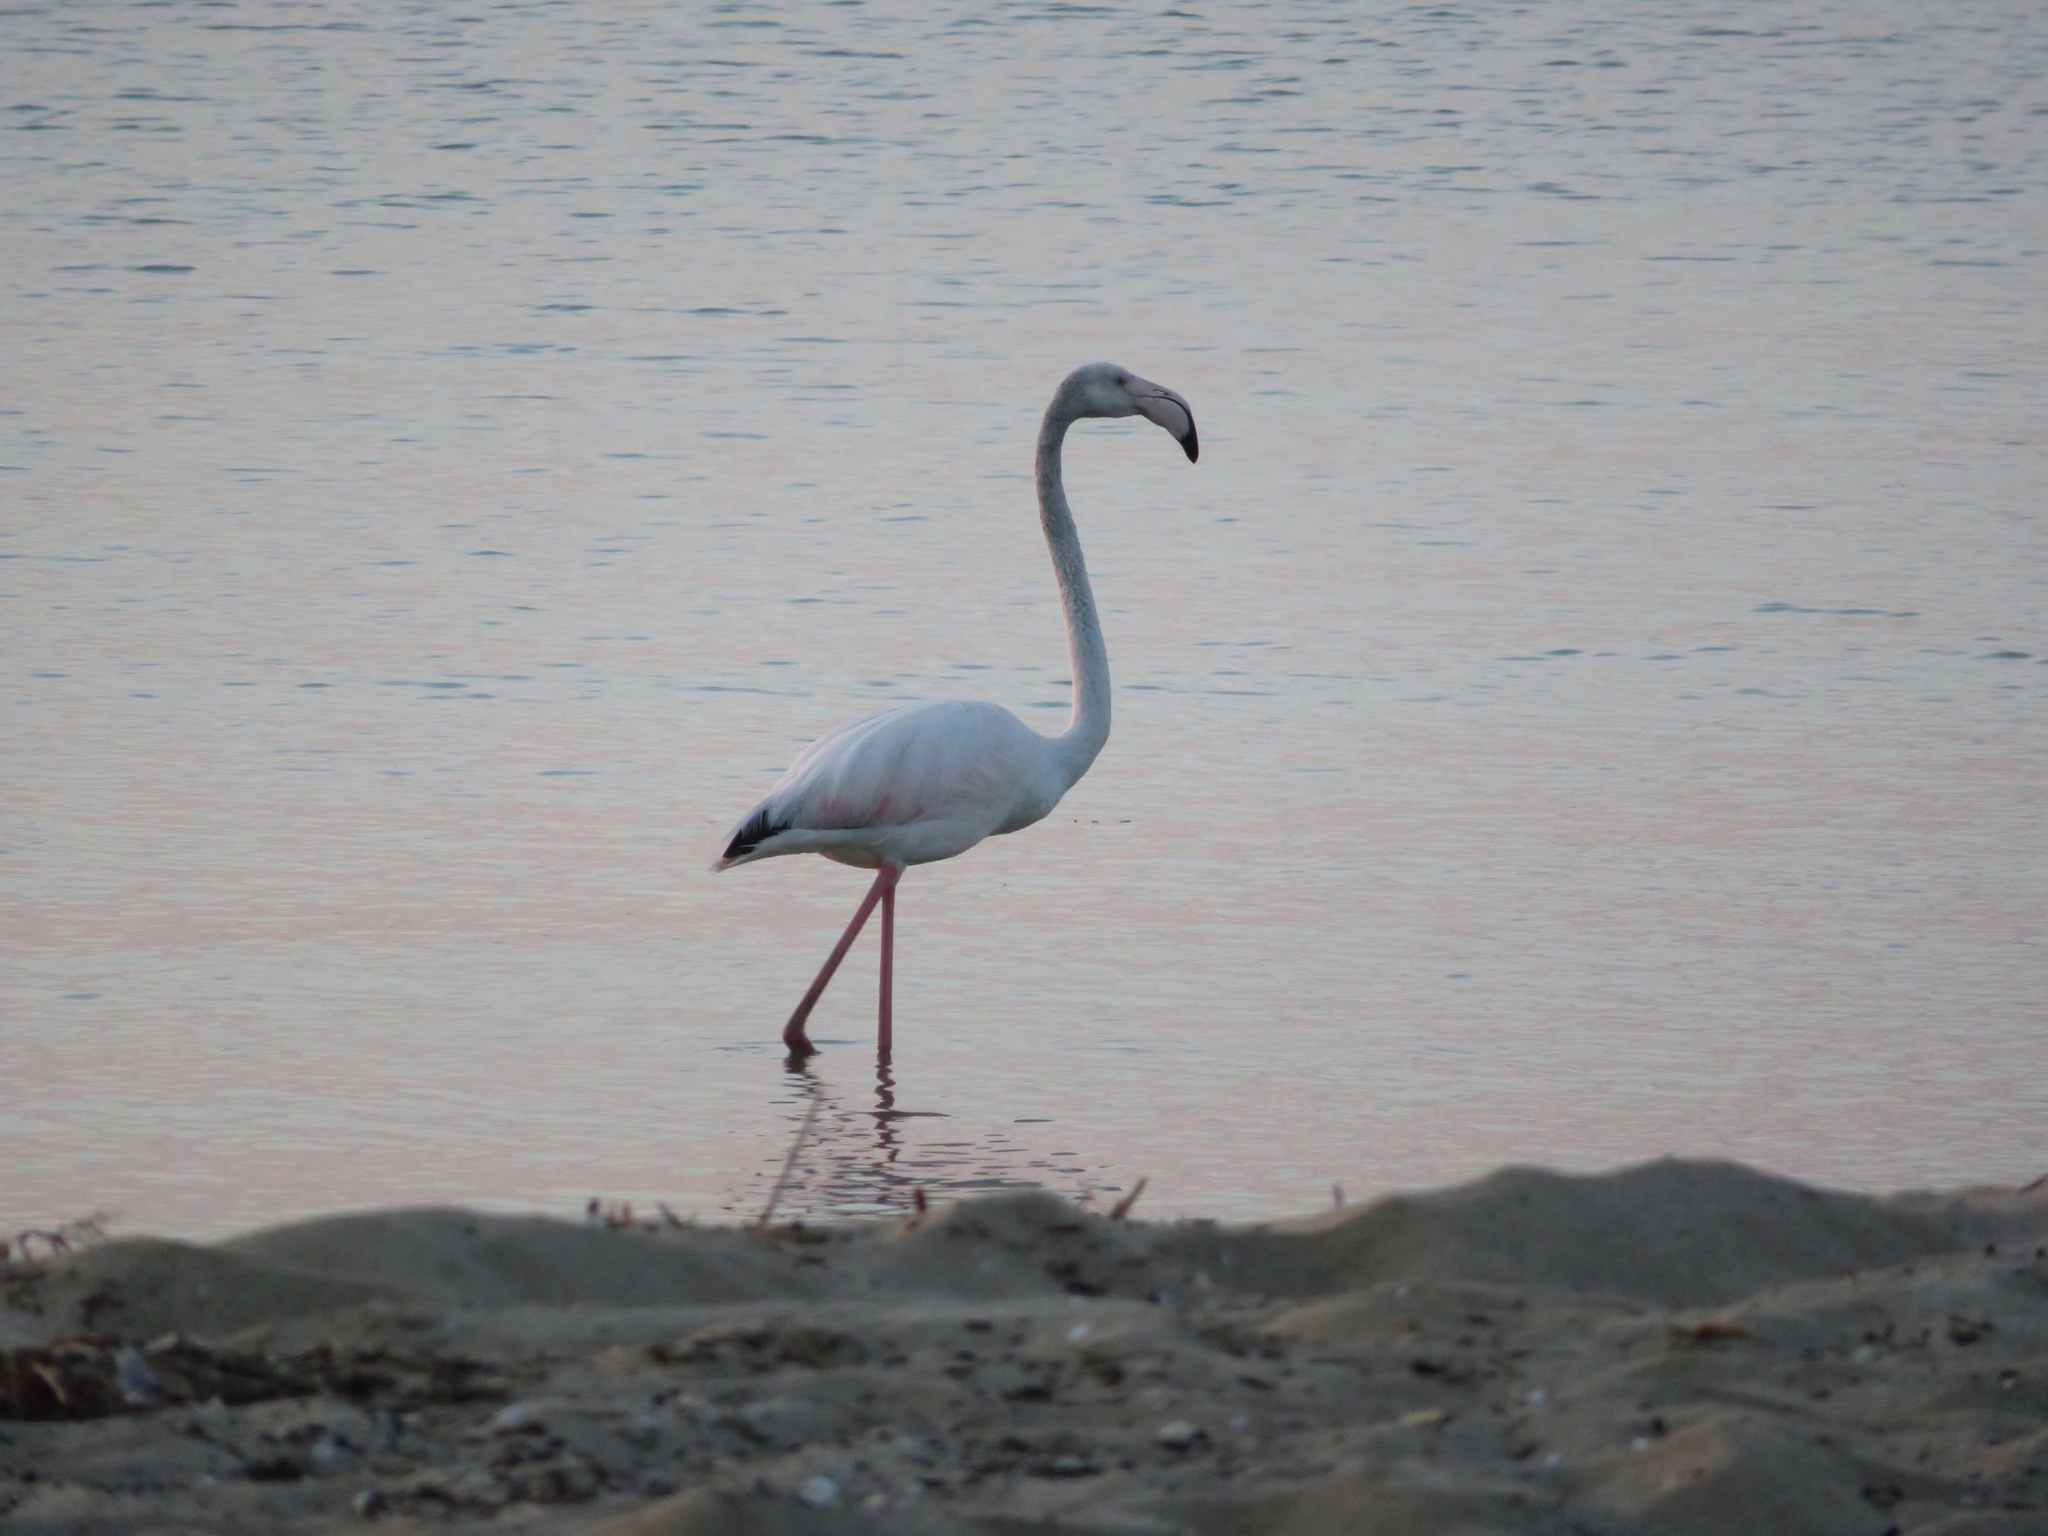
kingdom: Animalia
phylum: Chordata
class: Aves
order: Phoenicopteriformes
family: Phoenicopteridae
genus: Phoenicopterus
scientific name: Phoenicopterus roseus
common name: Greater flamingo
